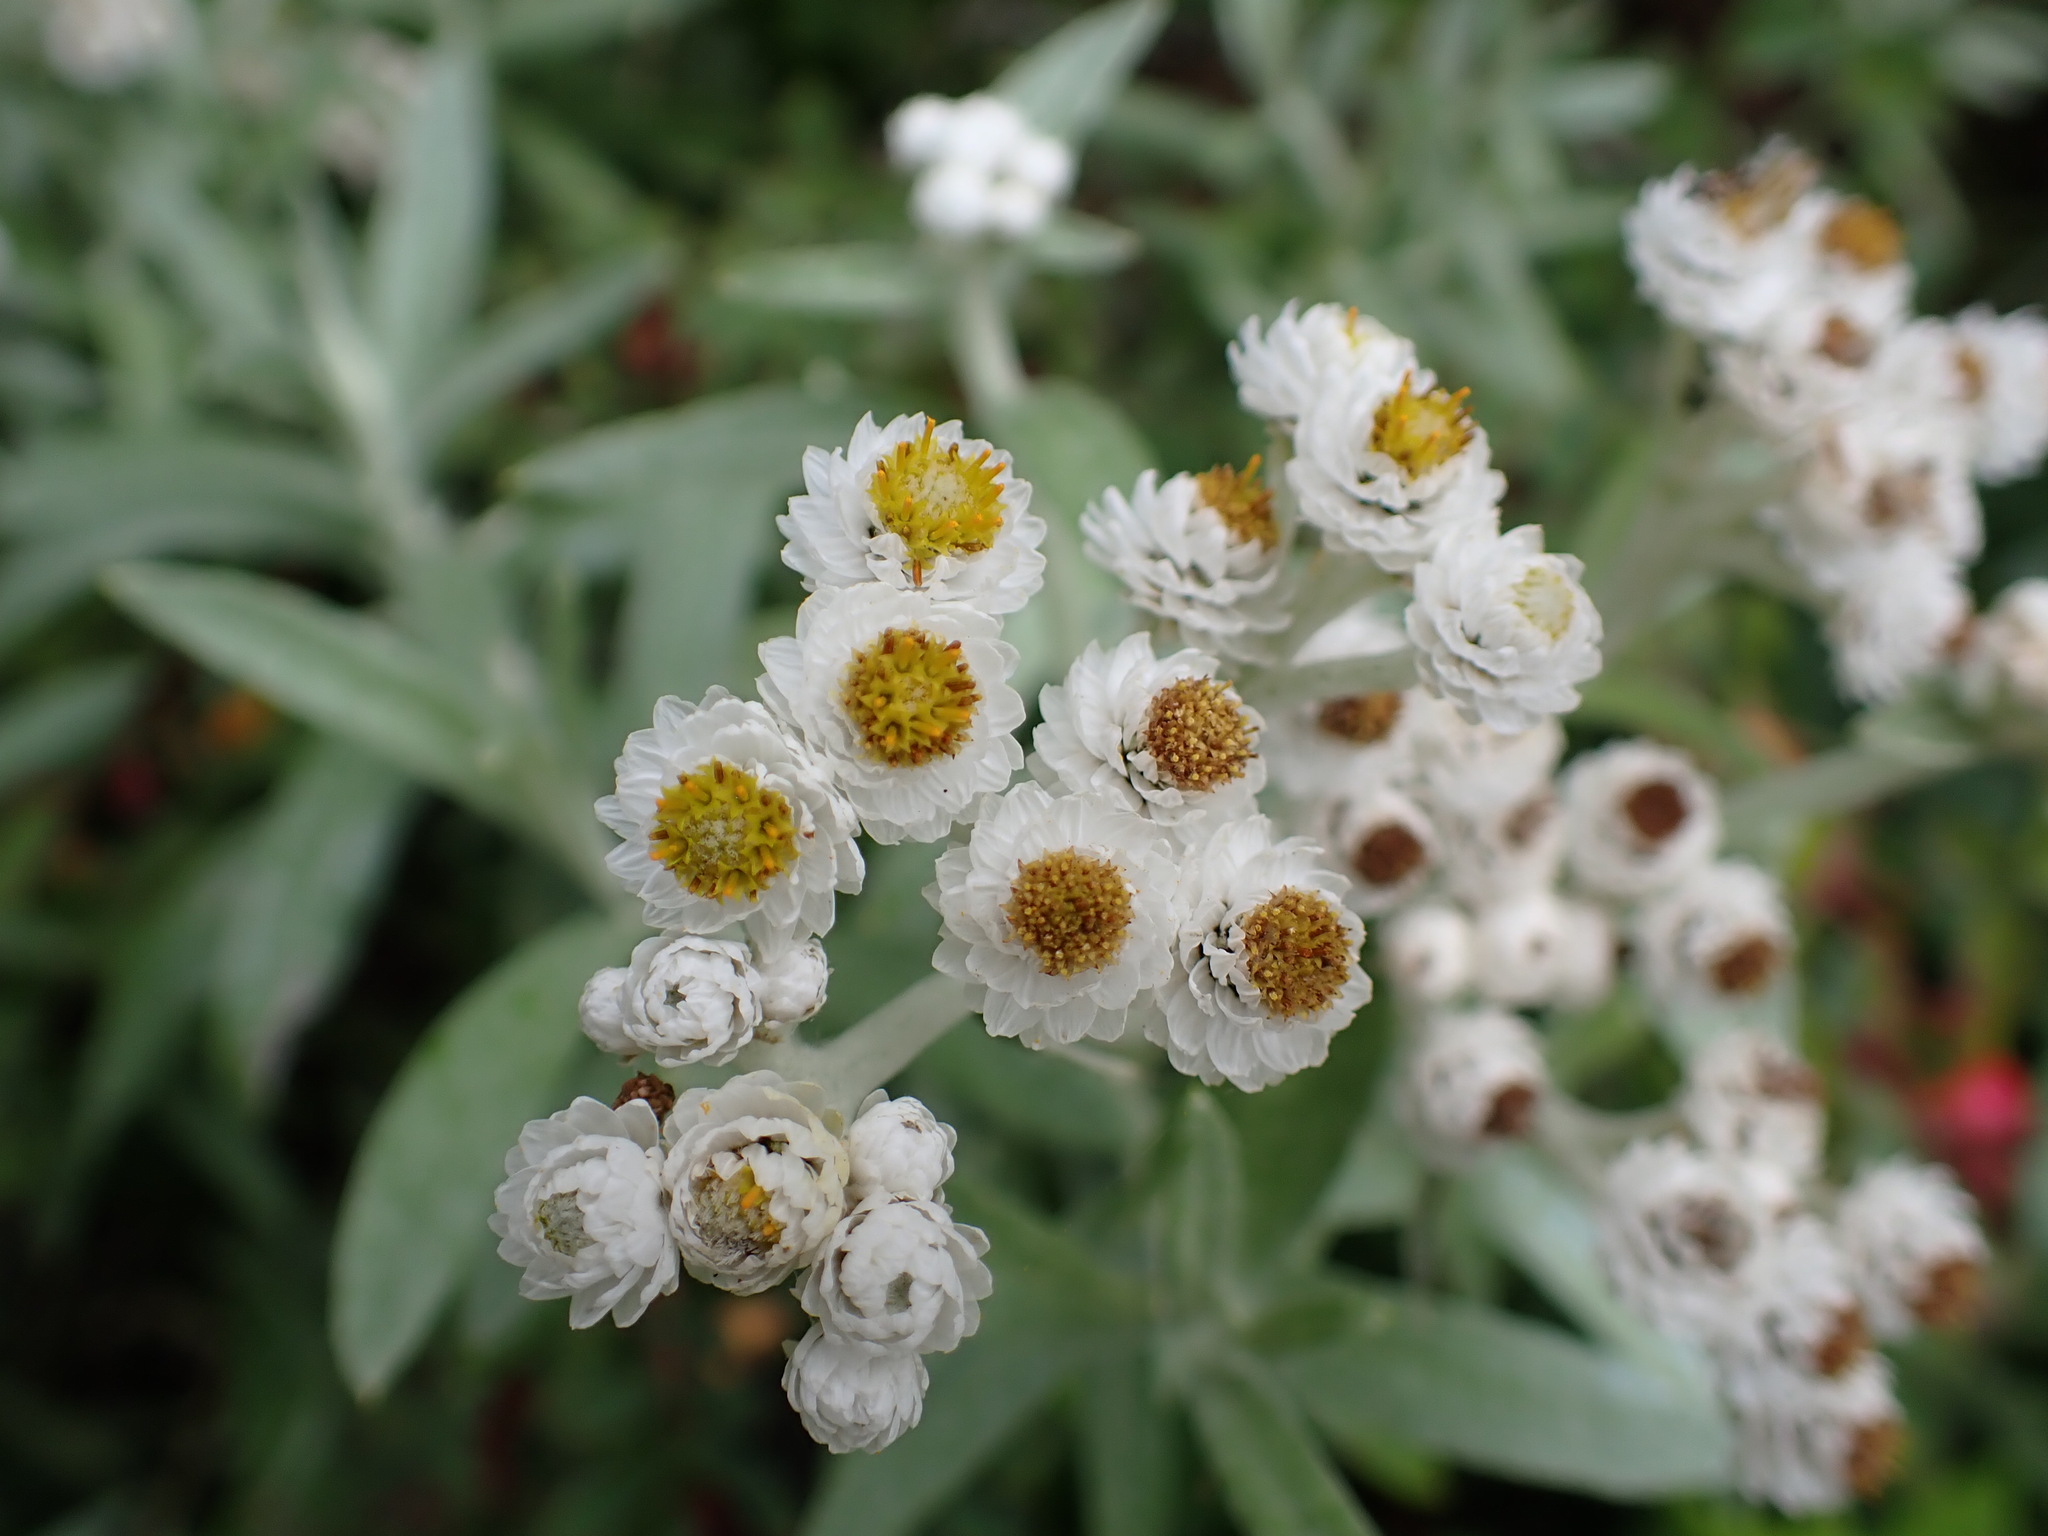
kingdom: Plantae
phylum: Tracheophyta
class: Magnoliopsida
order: Asterales
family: Asteraceae
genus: Anaphalis
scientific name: Anaphalis margaritacea
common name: Pearly everlasting
